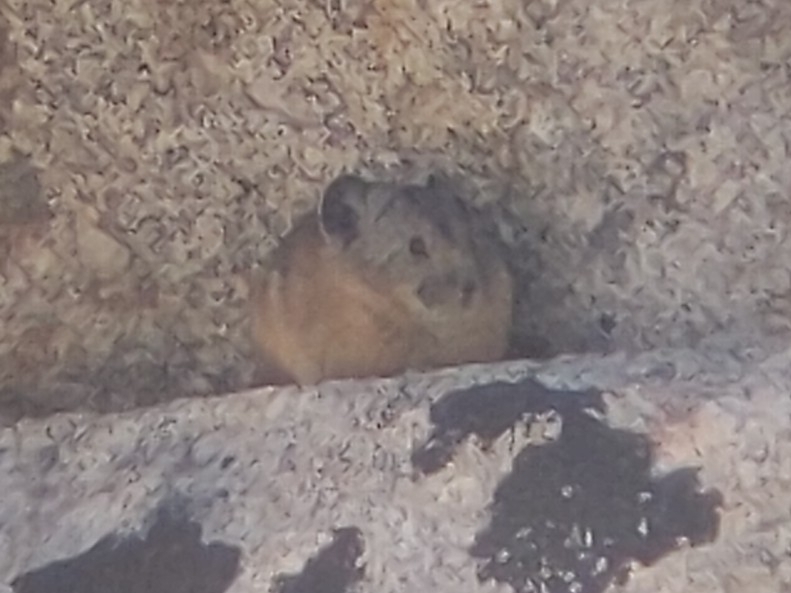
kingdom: Animalia
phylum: Chordata
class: Mammalia
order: Lagomorpha
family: Ochotonidae
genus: Ochotona
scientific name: Ochotona princeps
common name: American pika
